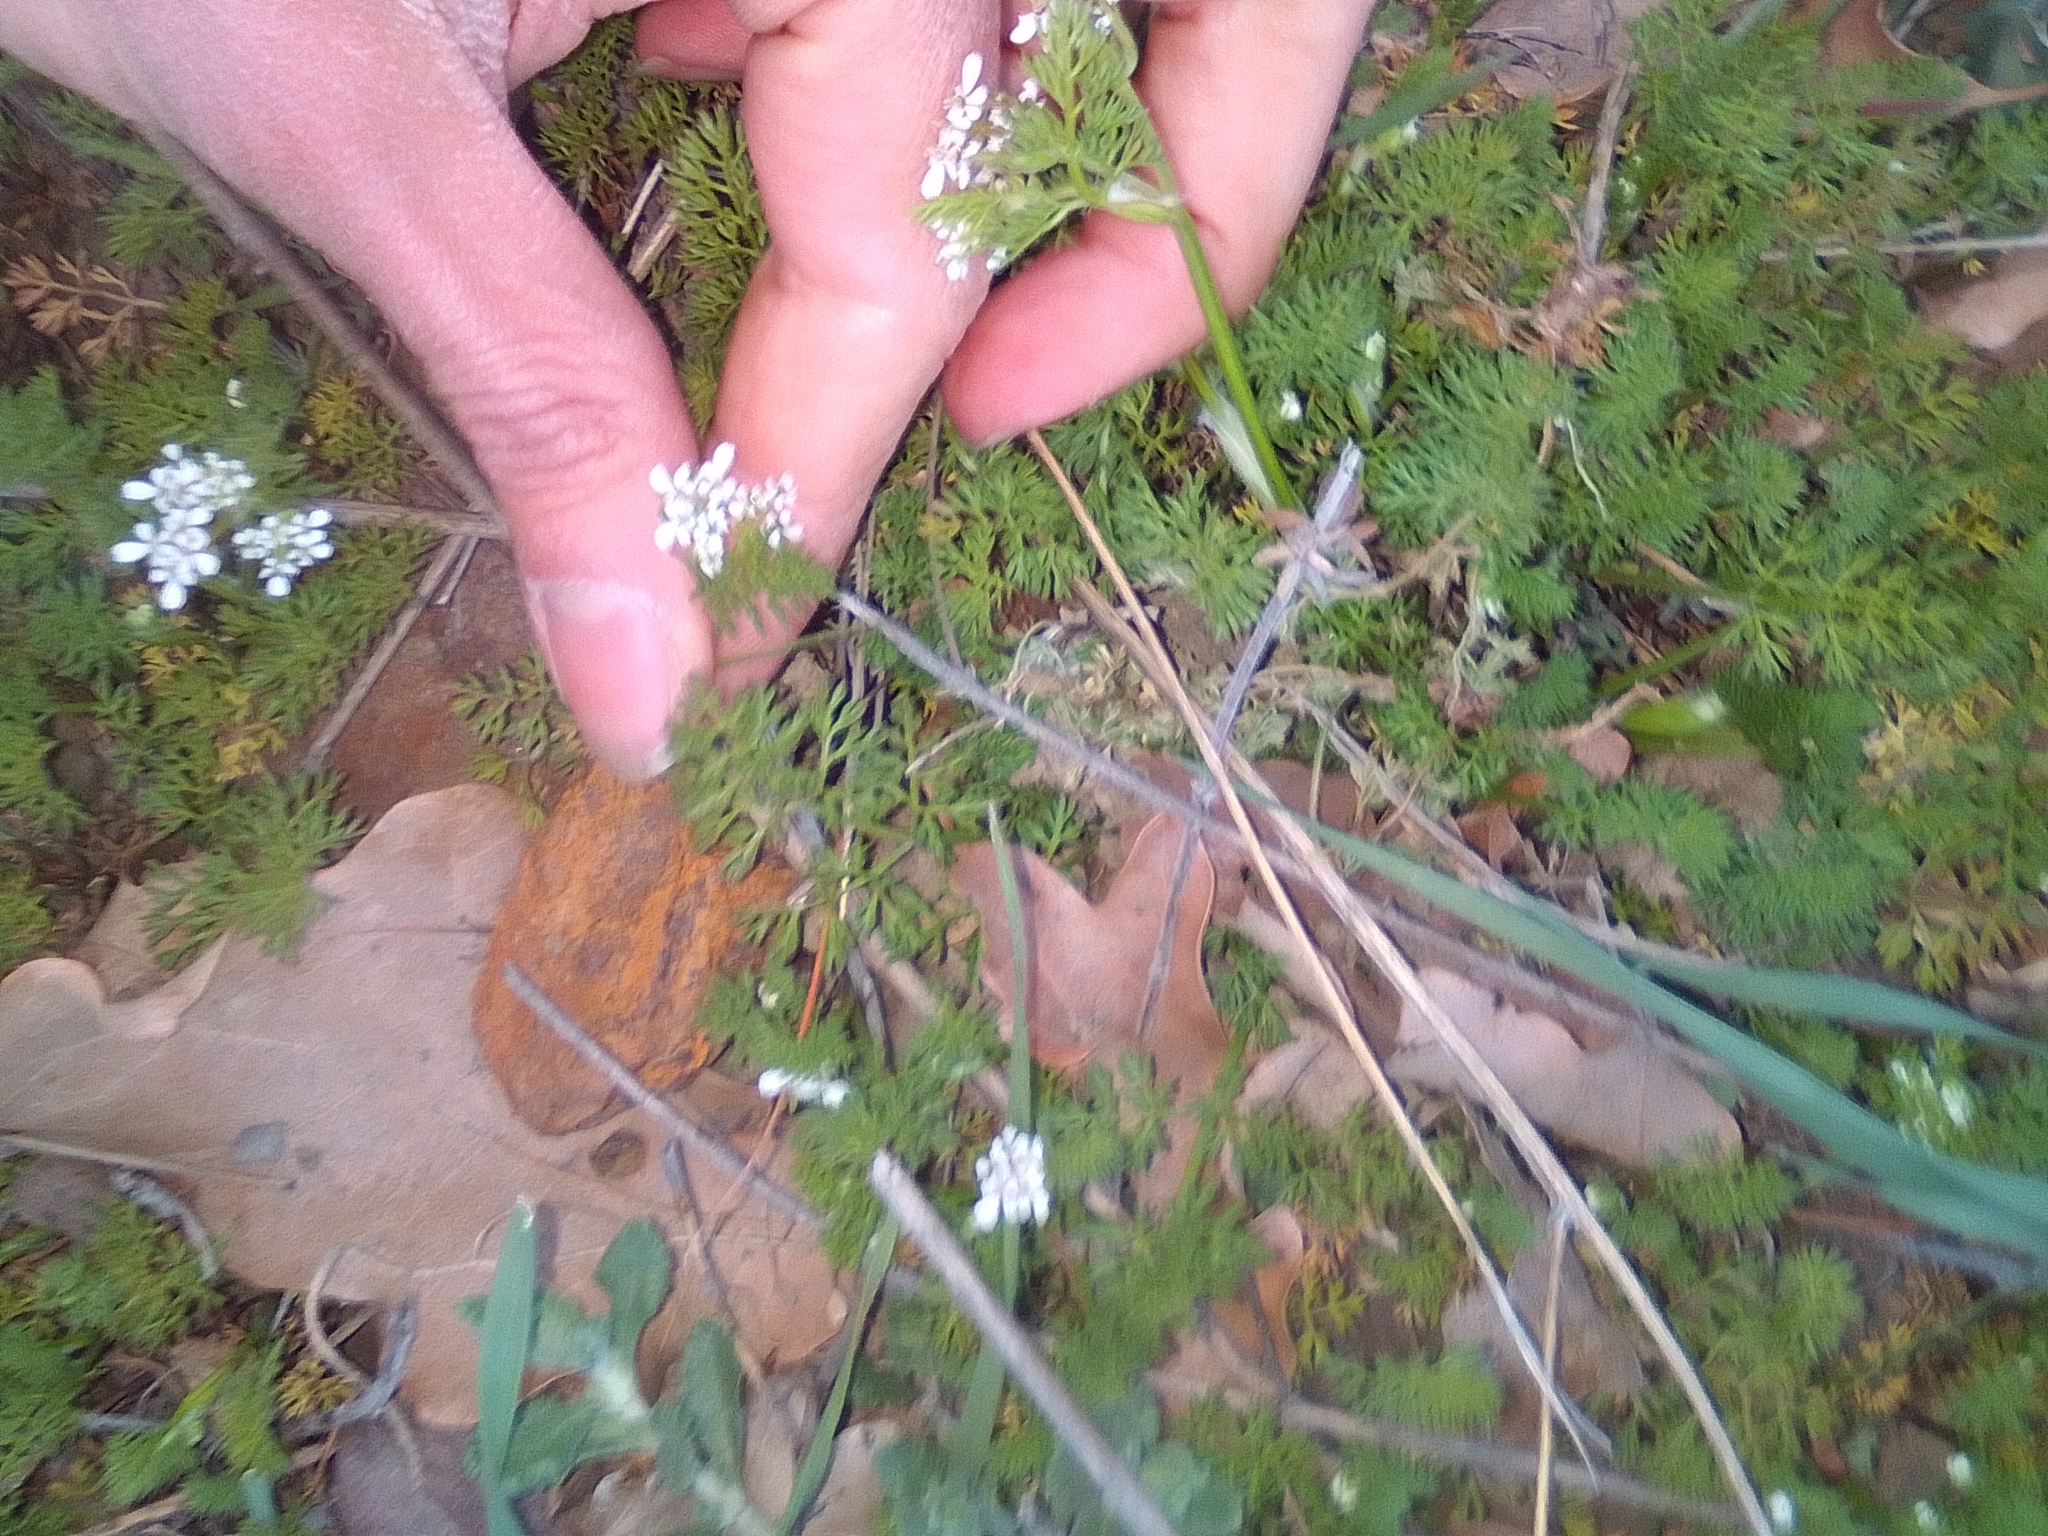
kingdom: Plantae
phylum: Tracheophyta
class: Magnoliopsida
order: Apiales
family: Apiaceae
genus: Coriandrum
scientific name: Coriandrum sativum
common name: Coriander
